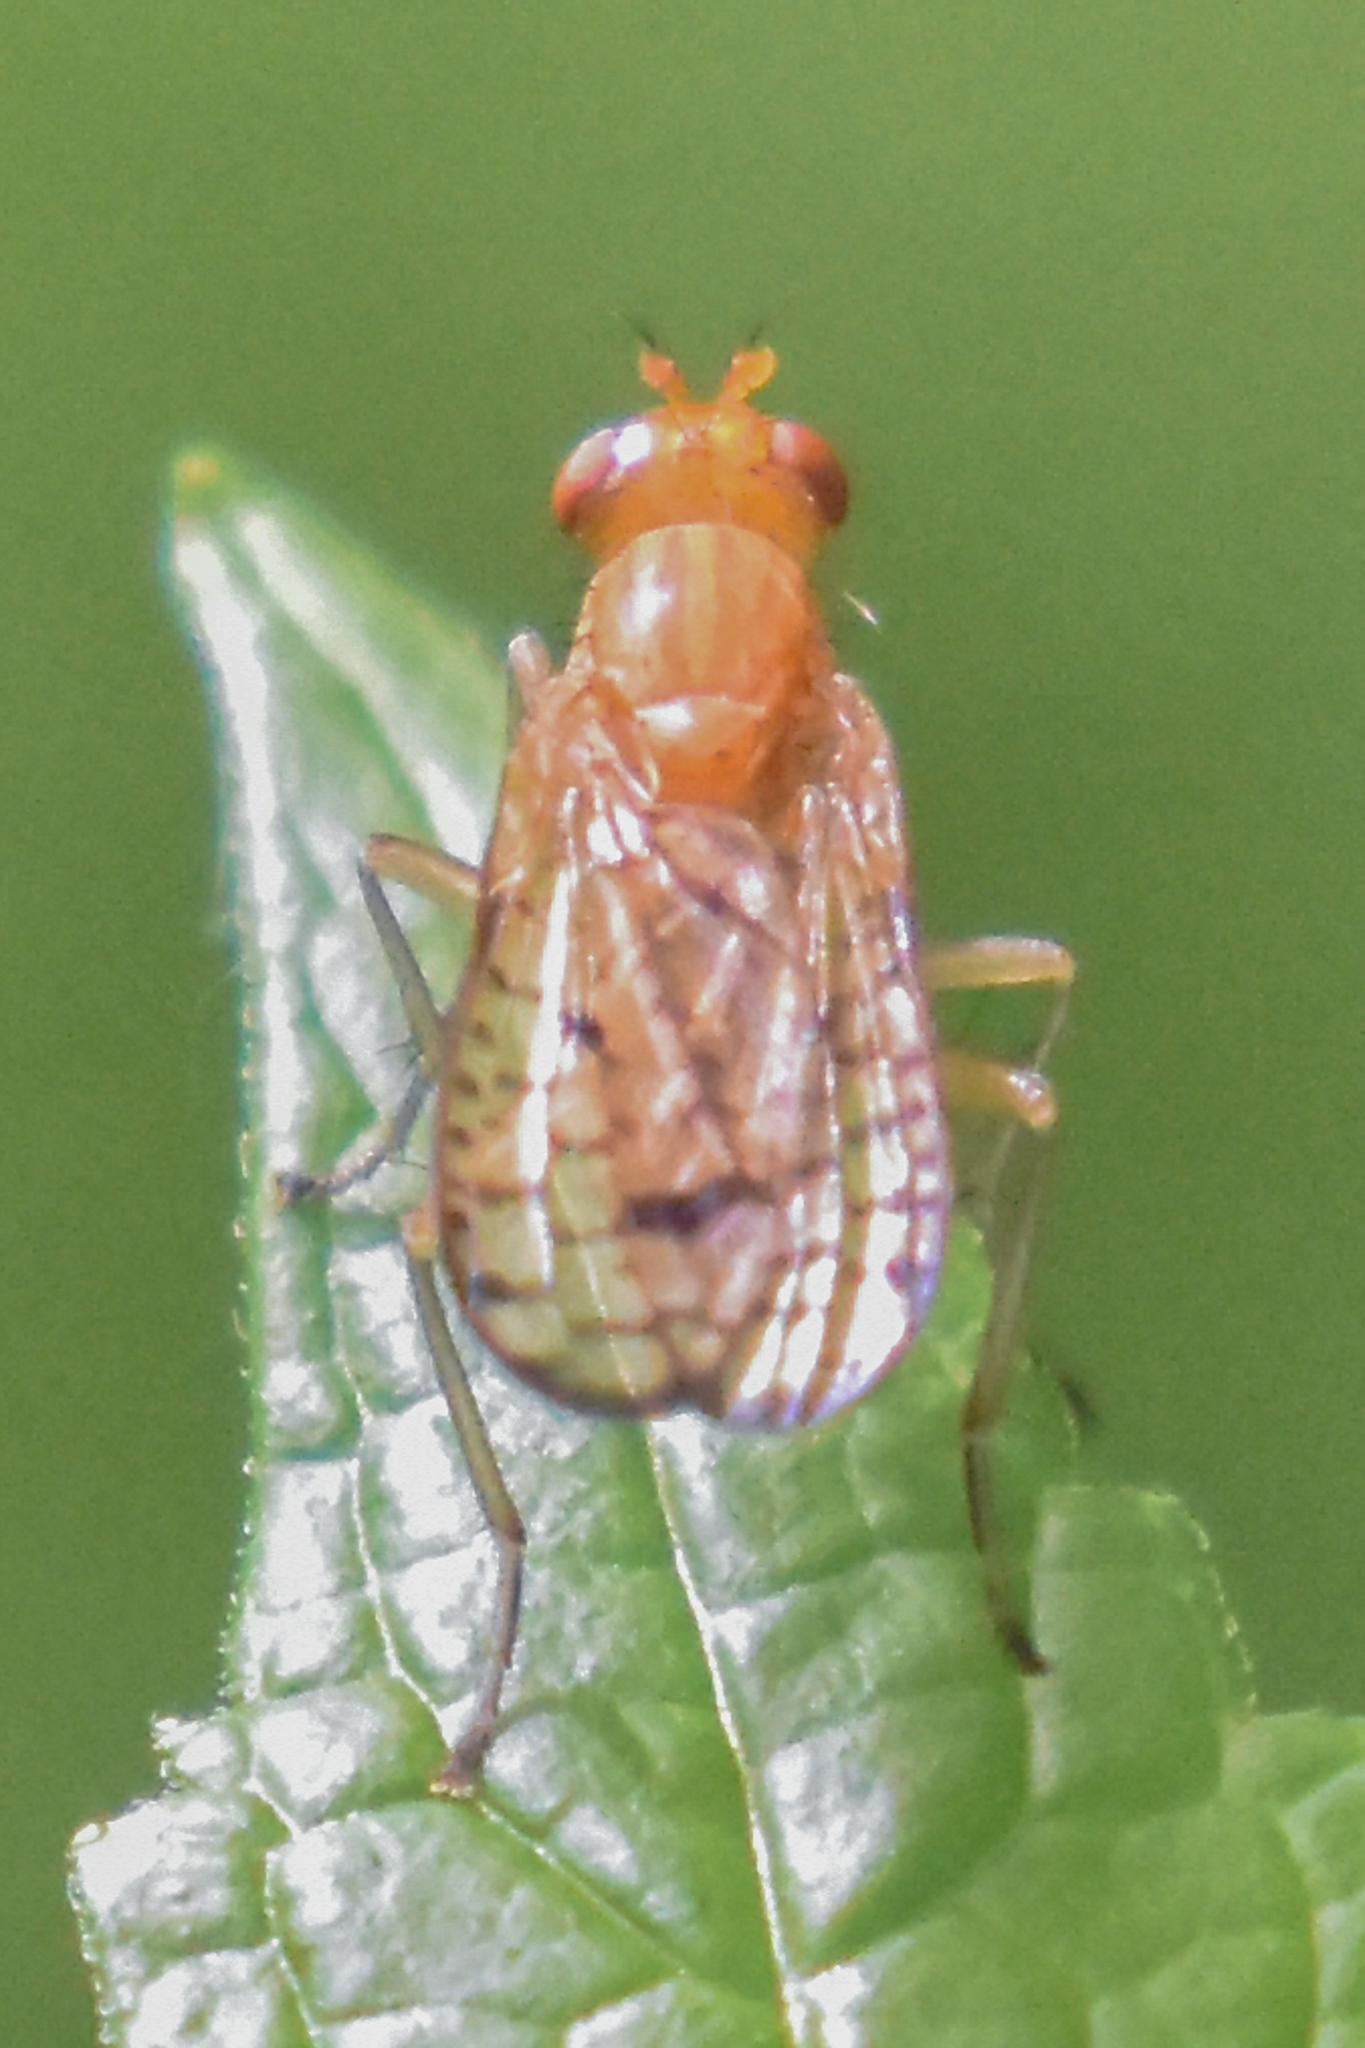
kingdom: Animalia
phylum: Arthropoda
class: Insecta
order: Diptera
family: Sciomyzidae
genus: Tetanocera
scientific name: Tetanocera valida
